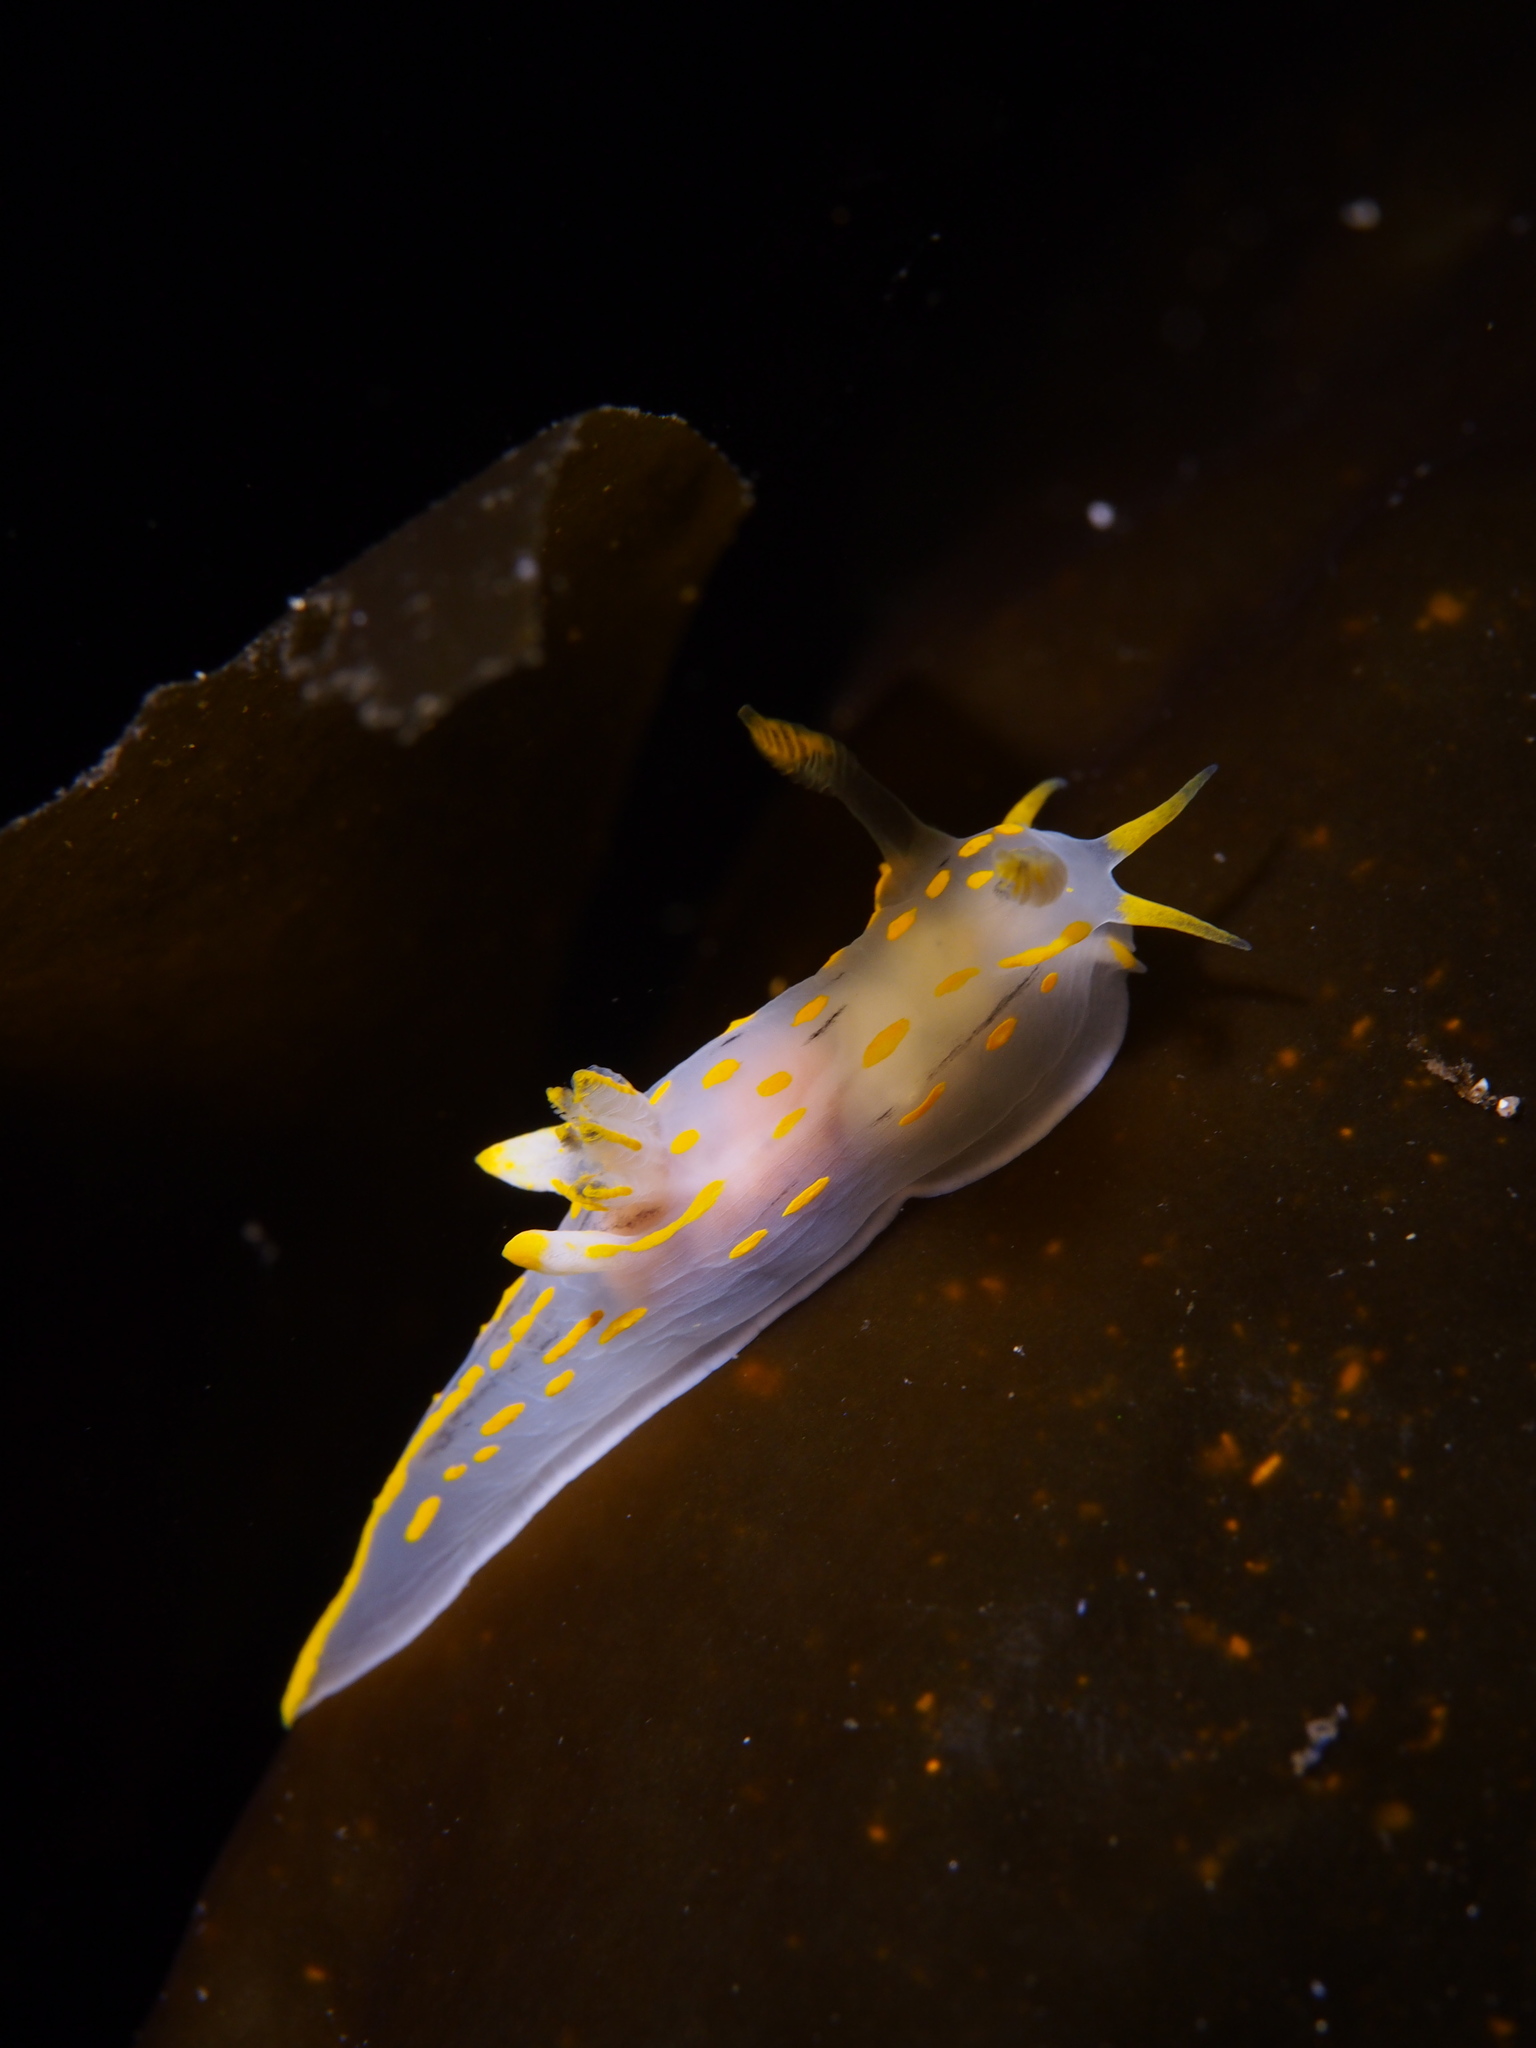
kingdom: Animalia
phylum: Mollusca
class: Gastropoda
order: Nudibranchia
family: Polyceridae
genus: Polycera
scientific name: Polycera quadrilineata
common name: Four-striped polycera
